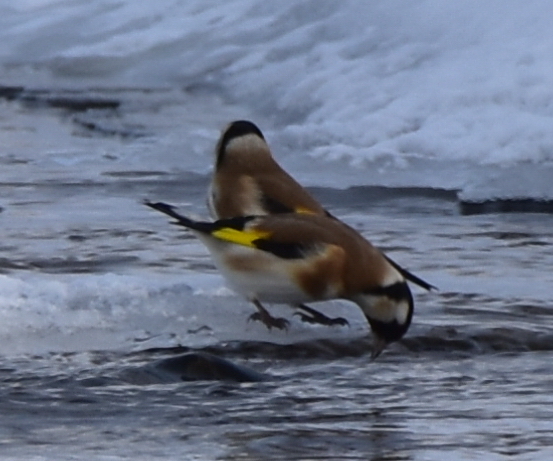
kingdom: Animalia
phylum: Chordata
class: Aves
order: Passeriformes
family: Fringillidae
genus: Carduelis
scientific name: Carduelis carduelis
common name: European goldfinch
